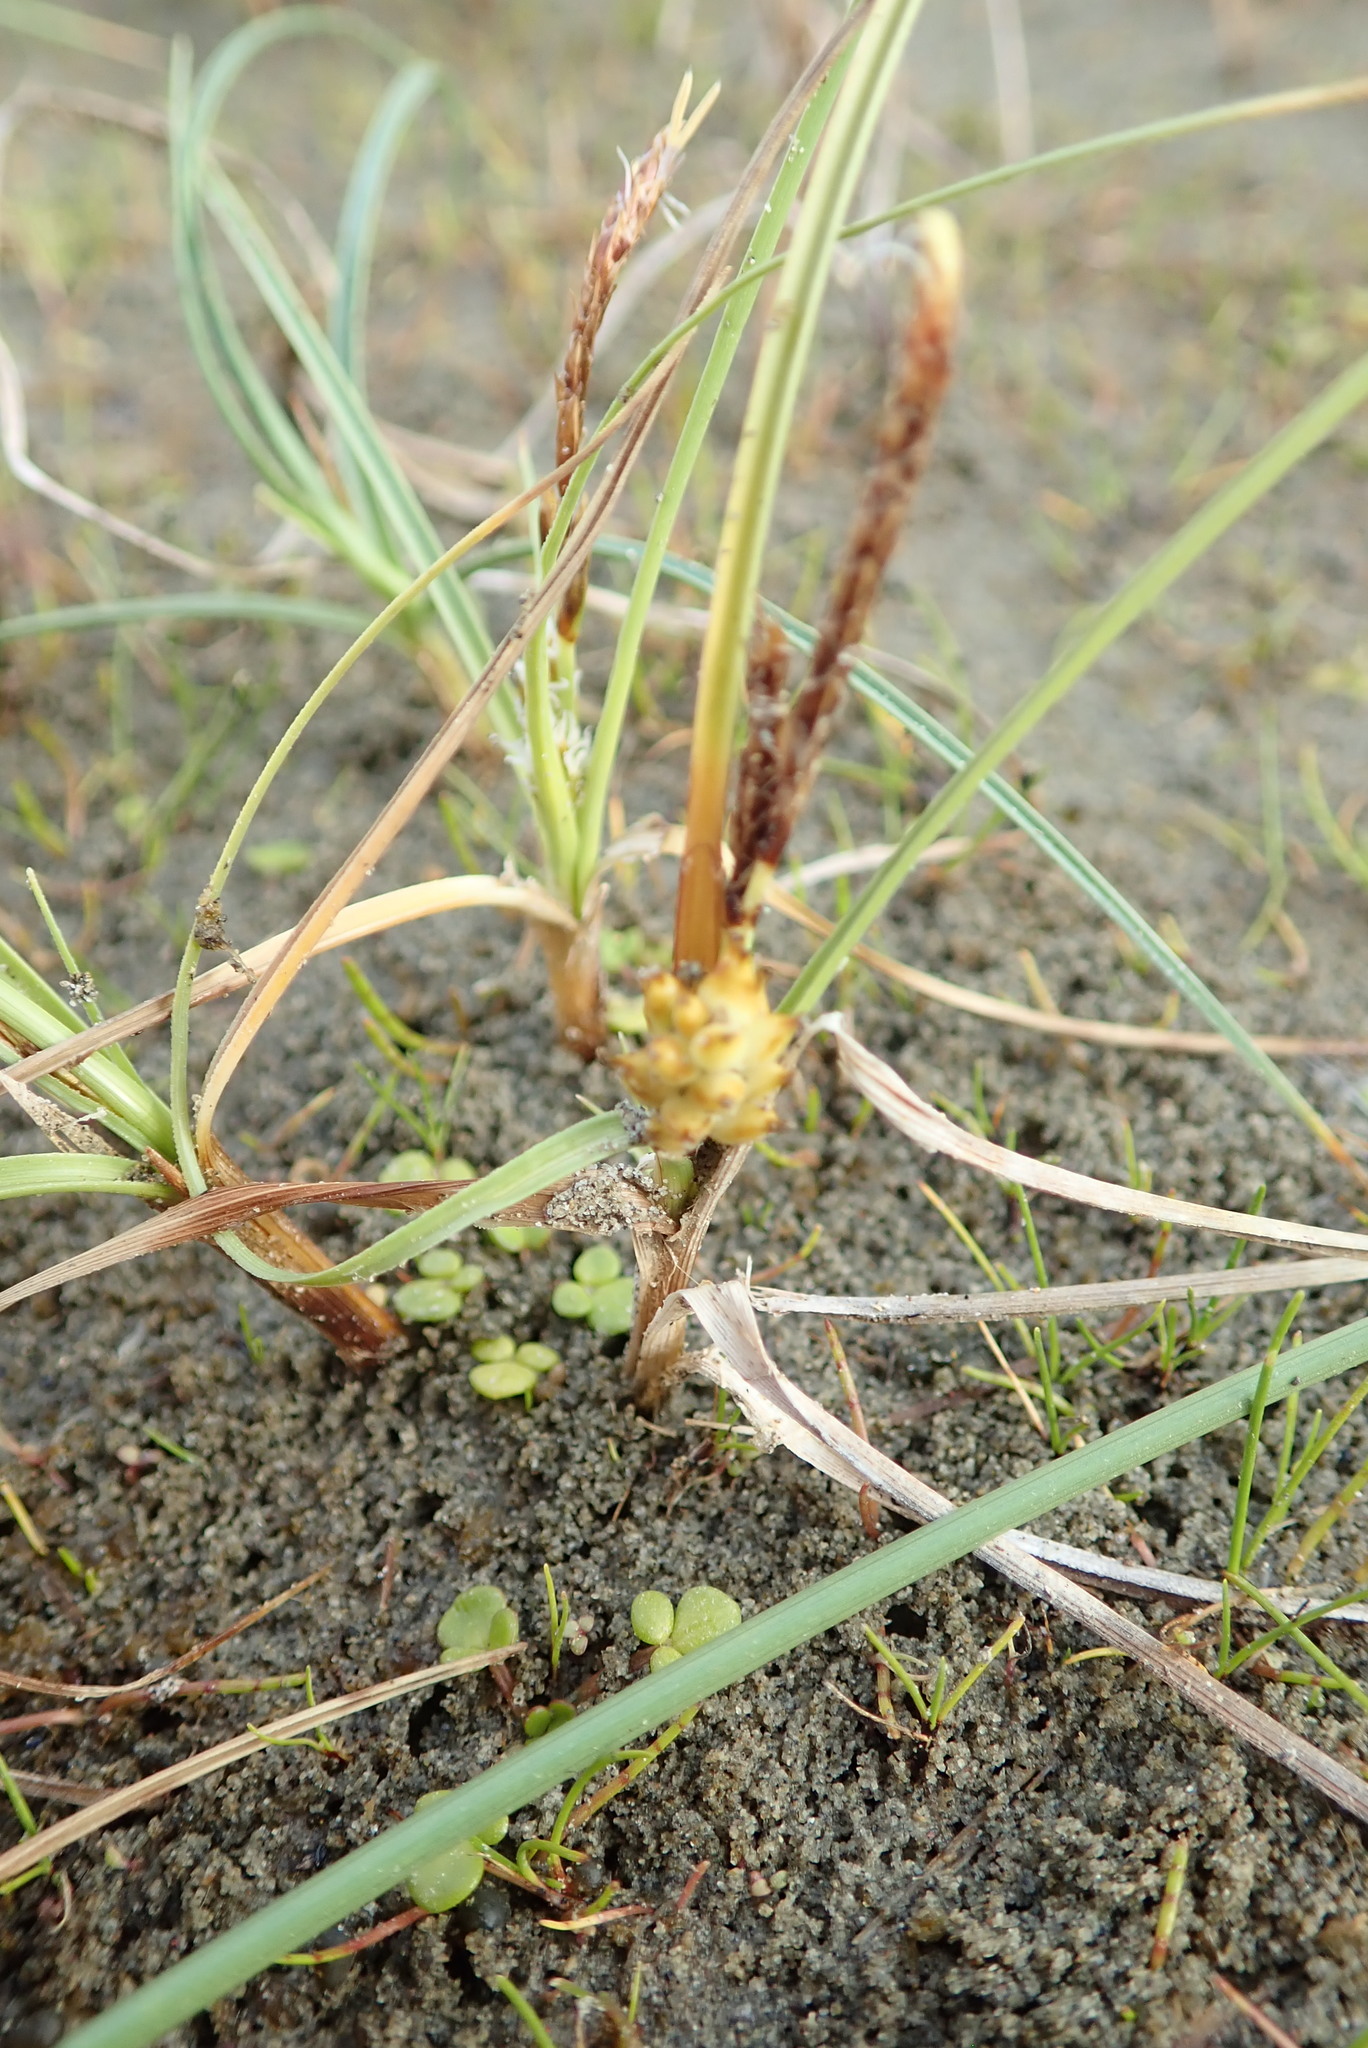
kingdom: Plantae
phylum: Tracheophyta
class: Liliopsida
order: Poales
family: Cyperaceae
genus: Carex
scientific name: Carex pumila
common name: Dwarf sedge
